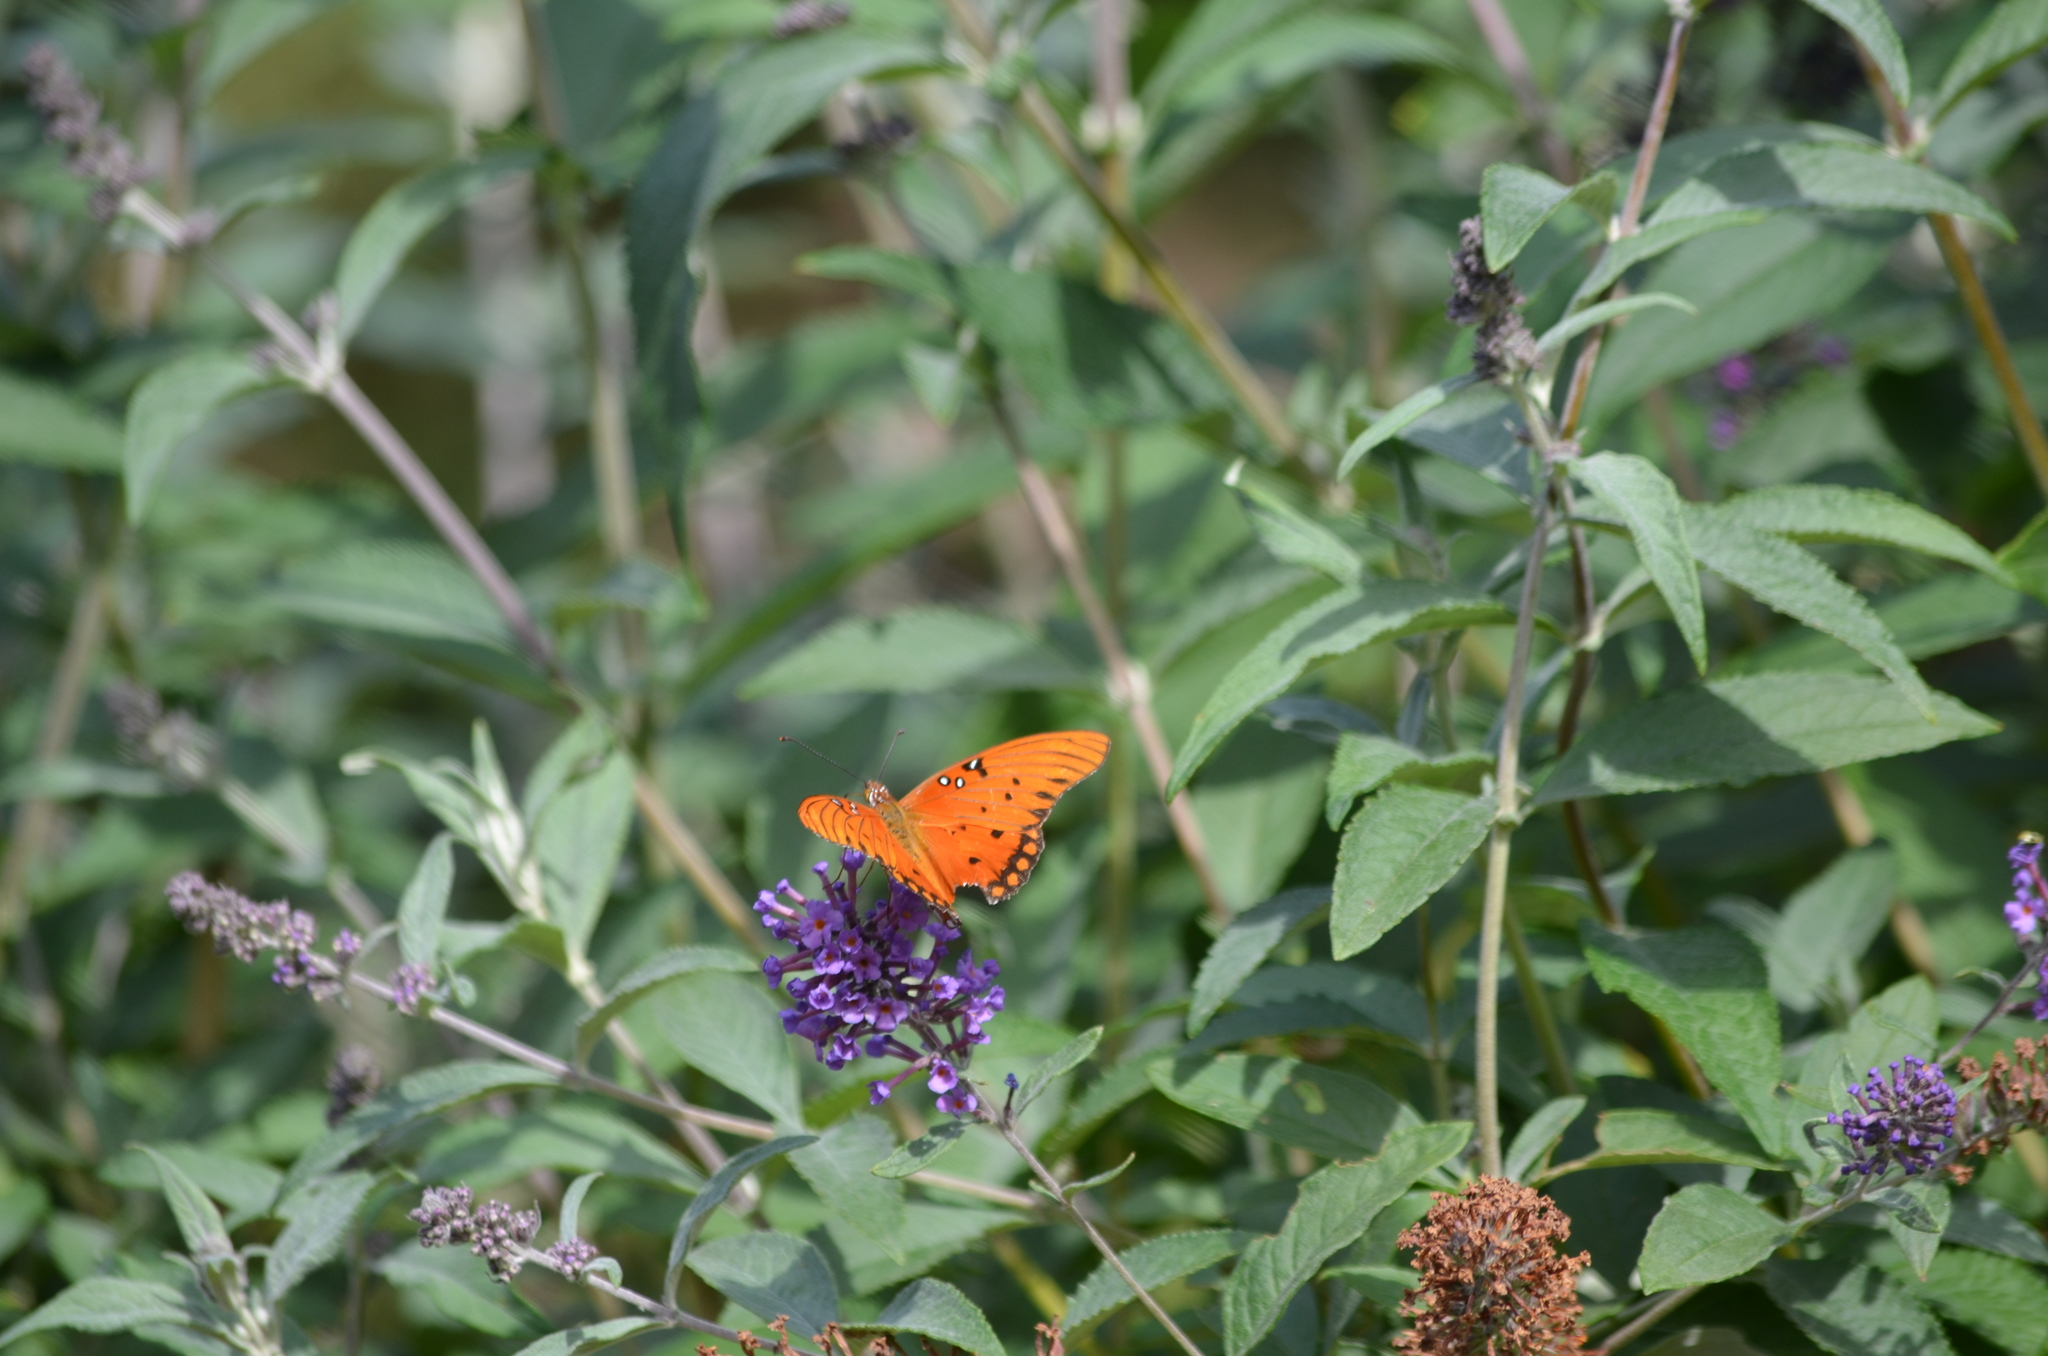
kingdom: Animalia
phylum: Arthropoda
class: Insecta
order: Lepidoptera
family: Nymphalidae
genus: Dione
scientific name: Dione vanillae
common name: Gulf fritillary
